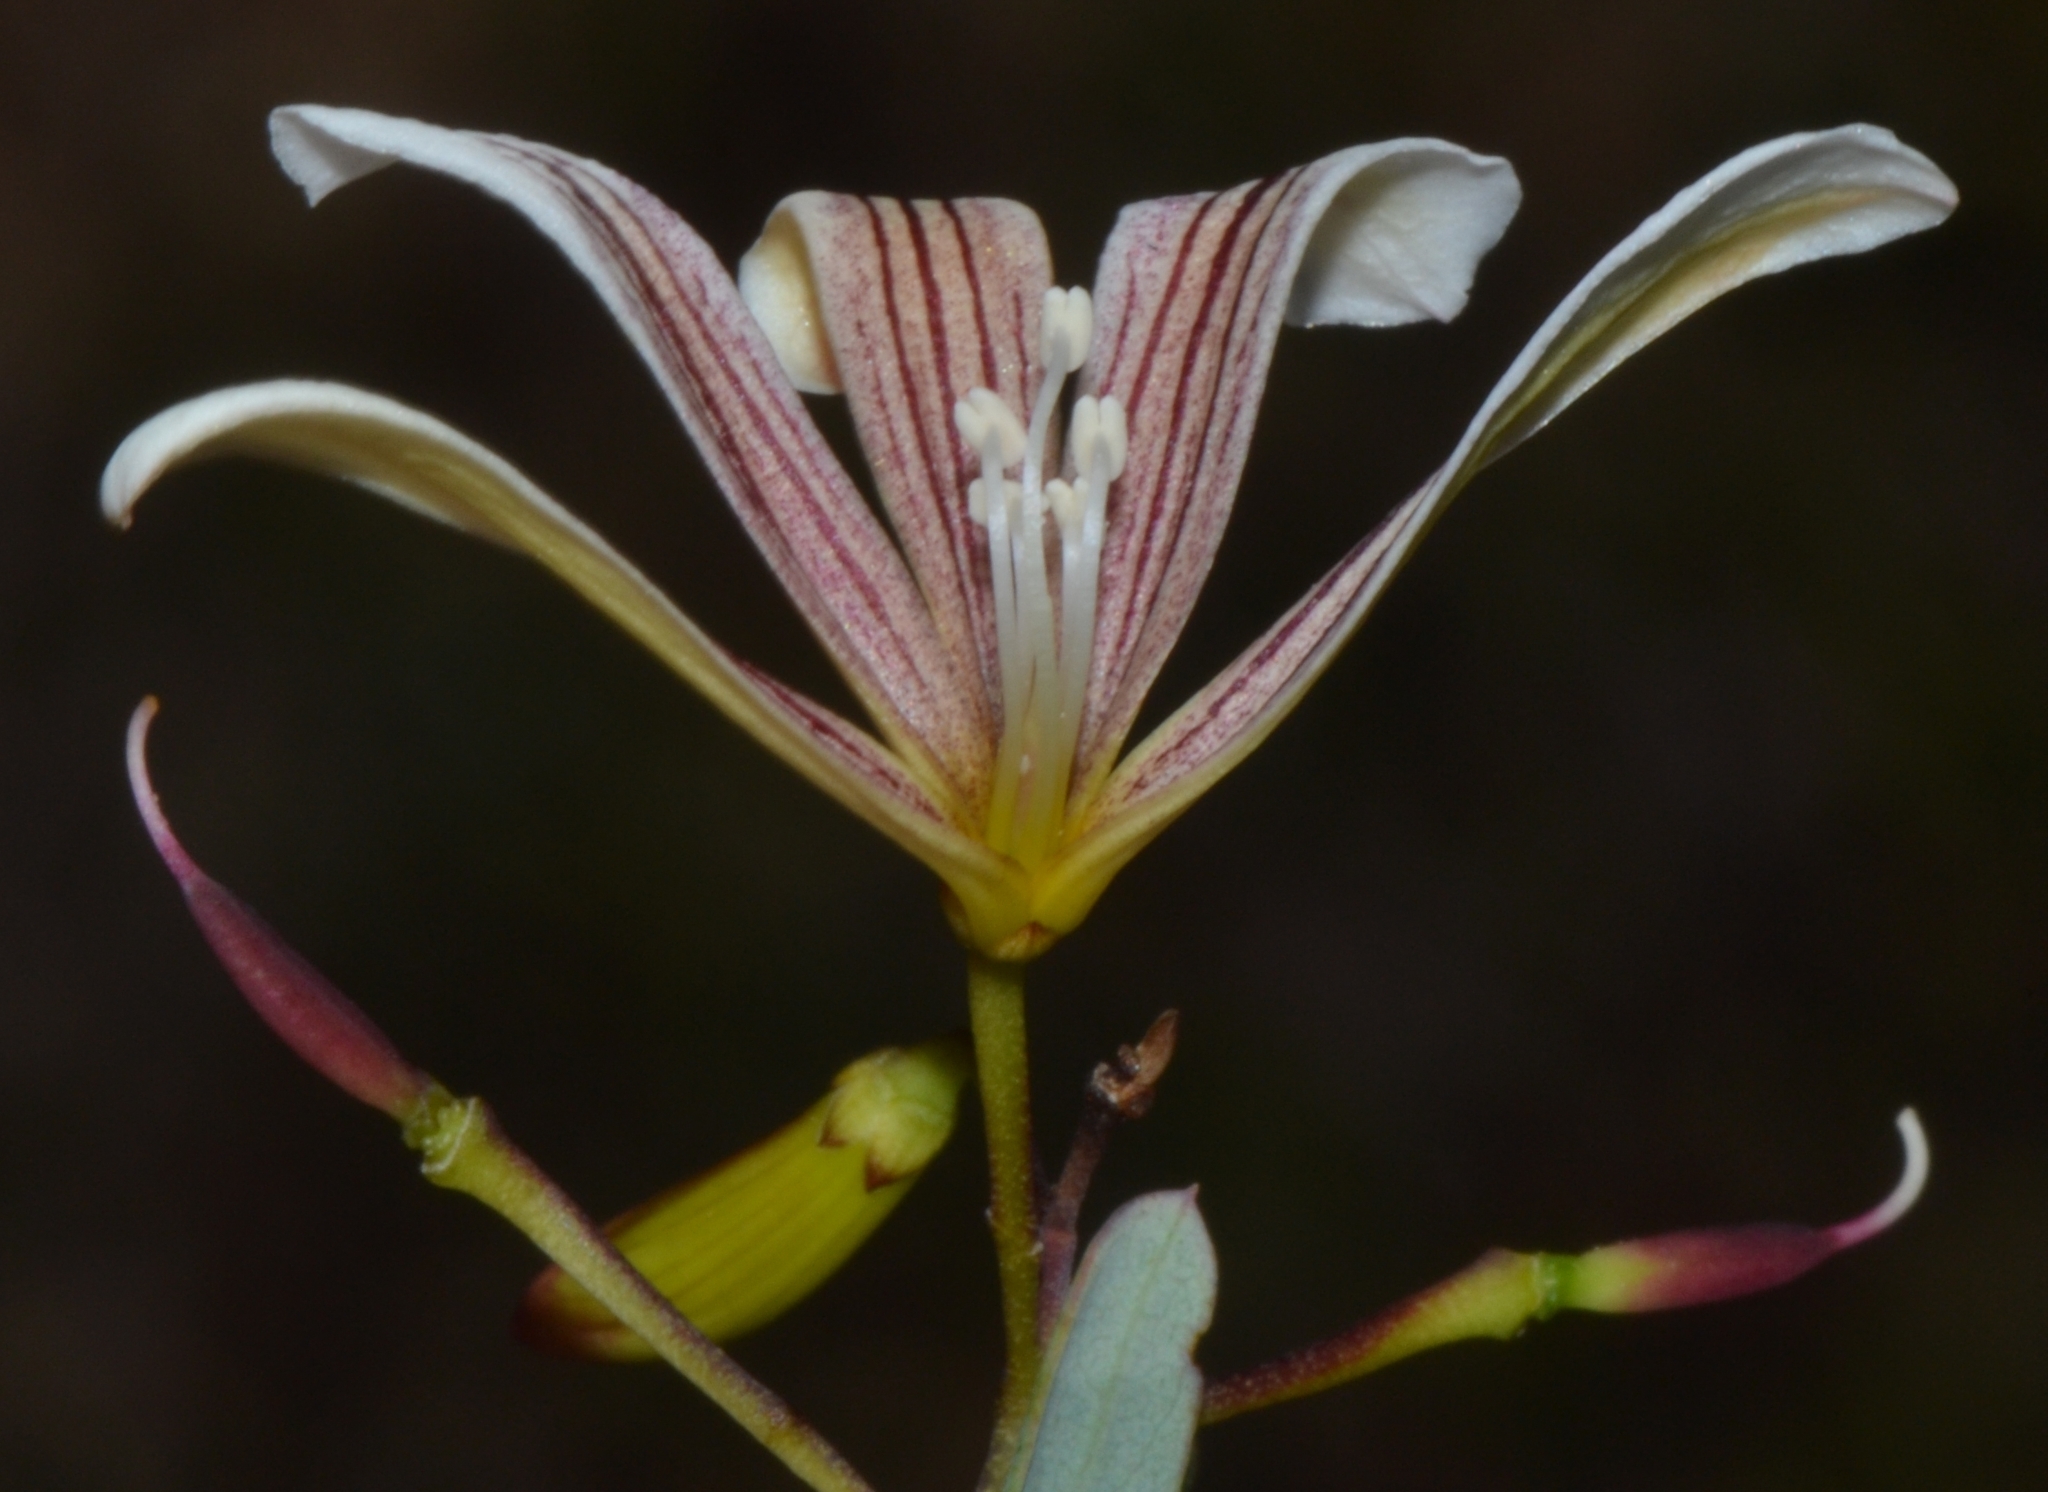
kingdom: Plantae
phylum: Tracheophyta
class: Magnoliopsida
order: Apiales
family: Pittosporaceae
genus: Marianthus
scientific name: Marianthus bicolor
